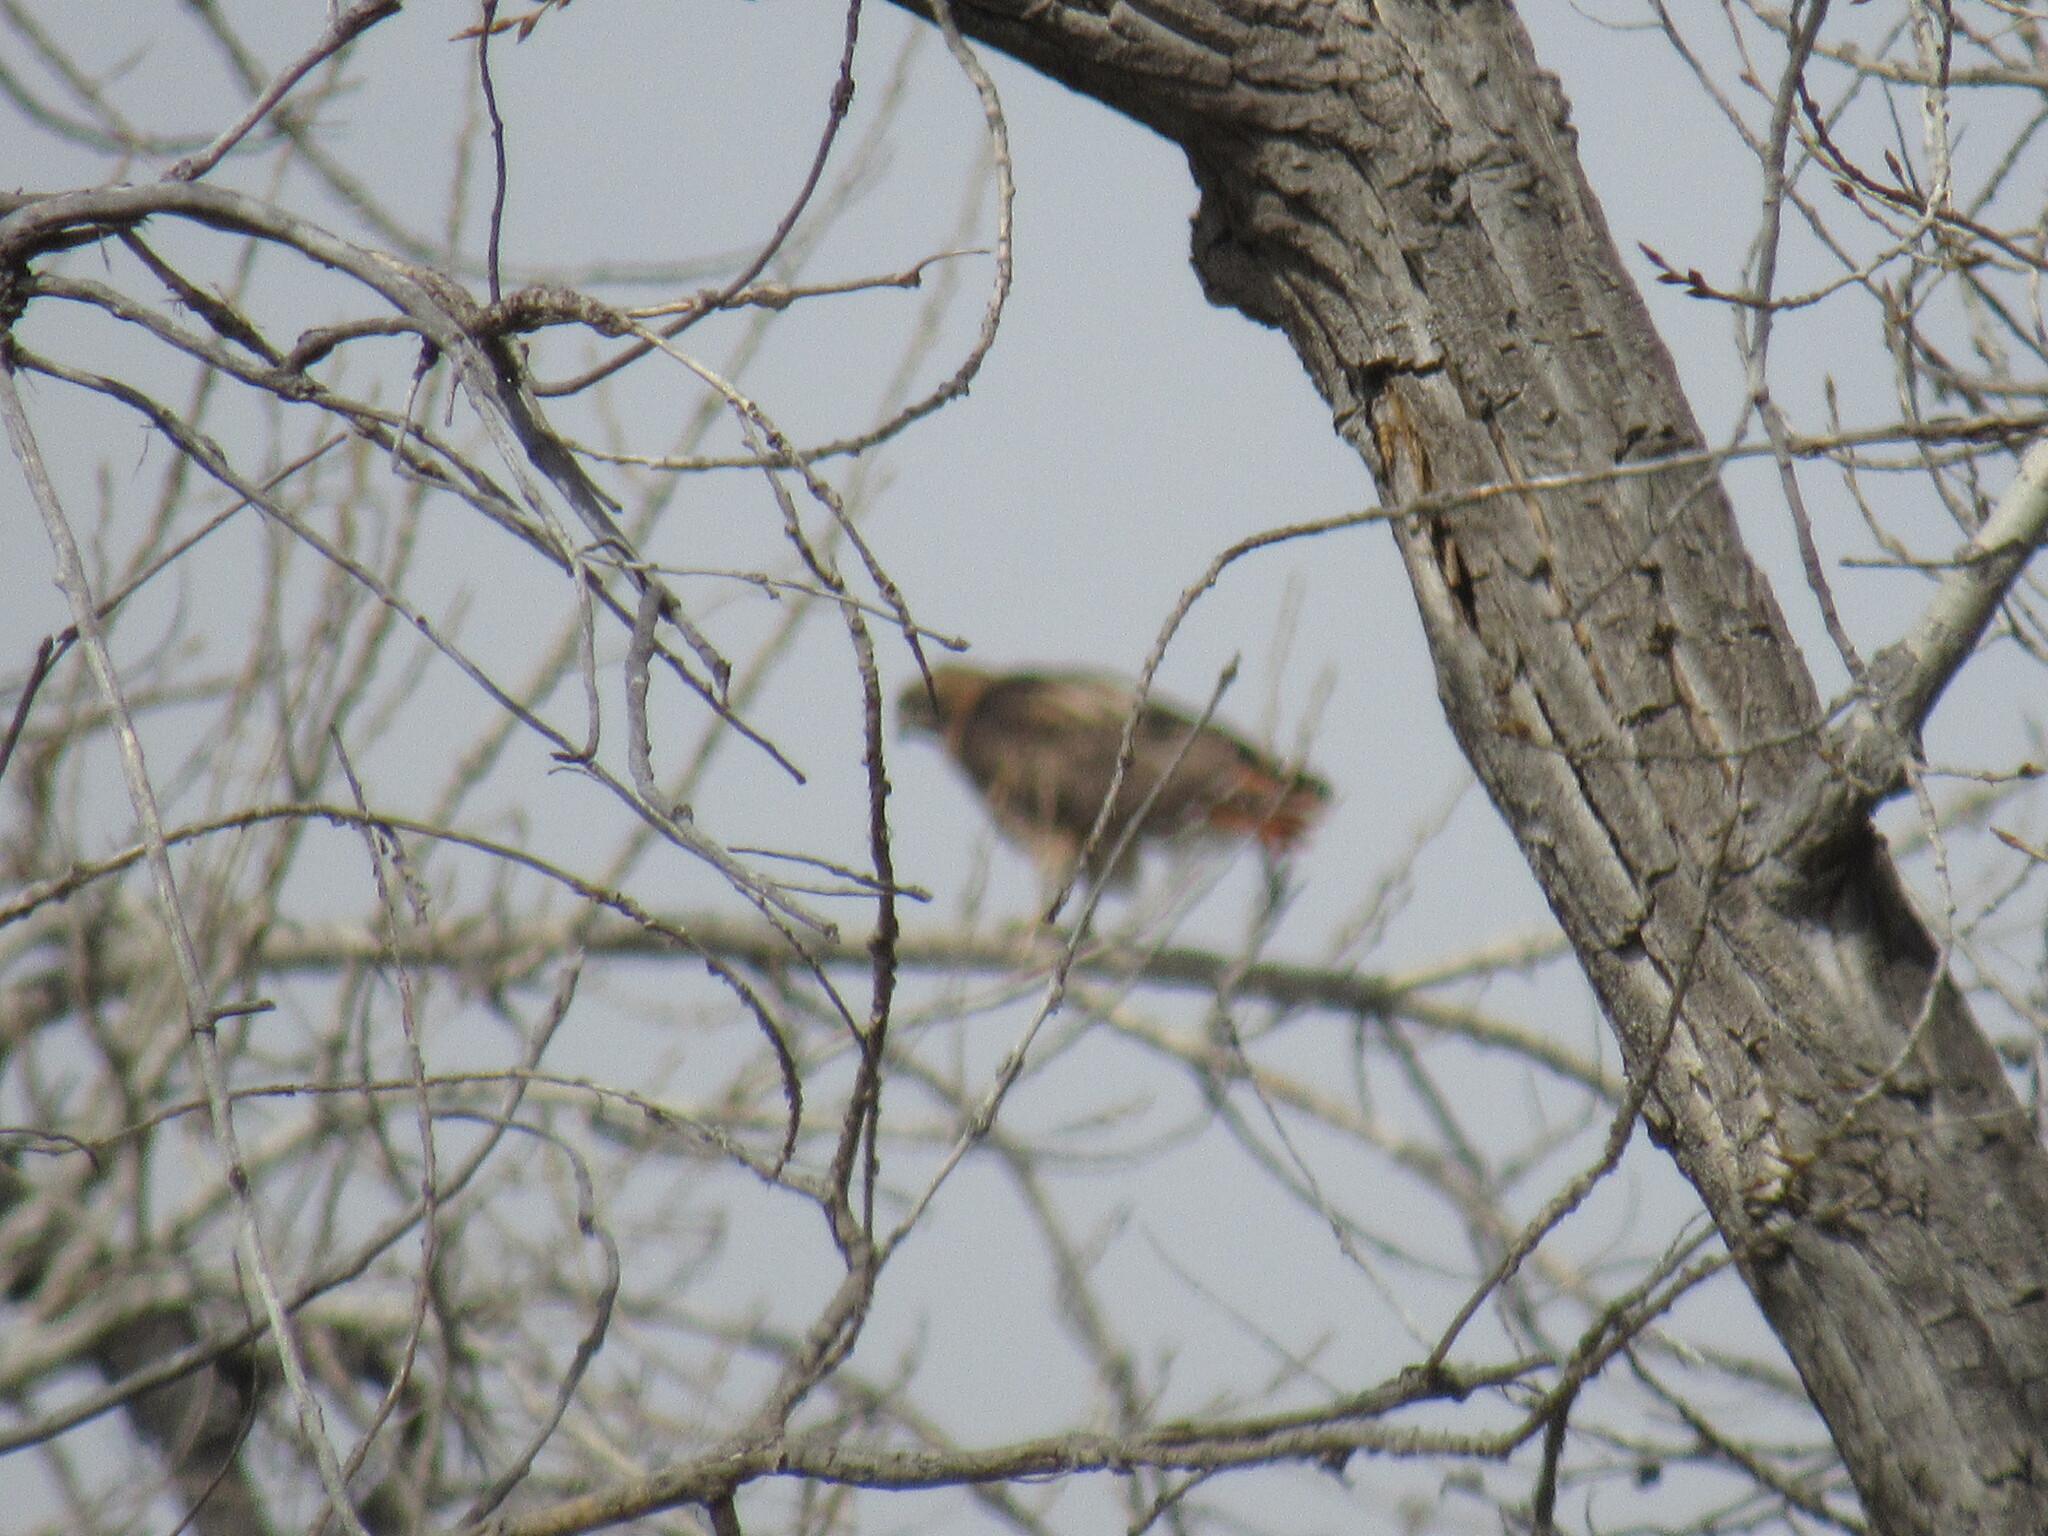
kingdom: Animalia
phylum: Chordata
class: Aves
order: Accipitriformes
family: Accipitridae
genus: Buteo
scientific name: Buteo jamaicensis
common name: Red-tailed hawk
